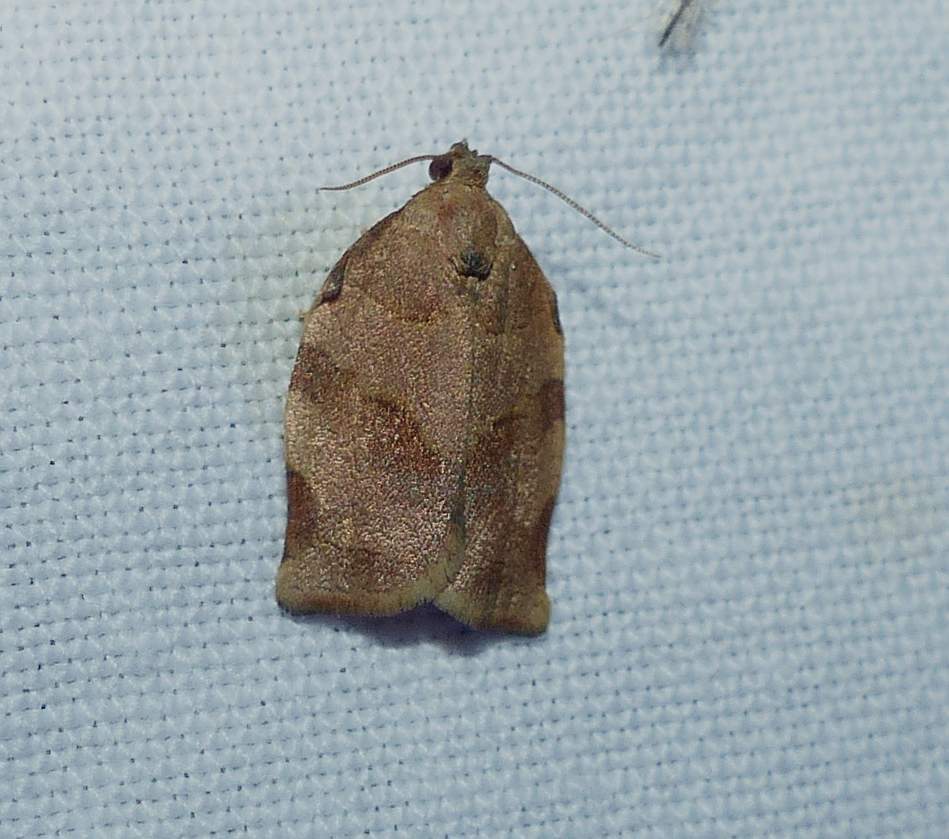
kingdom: Animalia
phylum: Arthropoda
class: Insecta
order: Lepidoptera
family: Tortricidae
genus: Choristoneura
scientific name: Choristoneura rosaceana
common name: Oblique-banded leafroller moth
